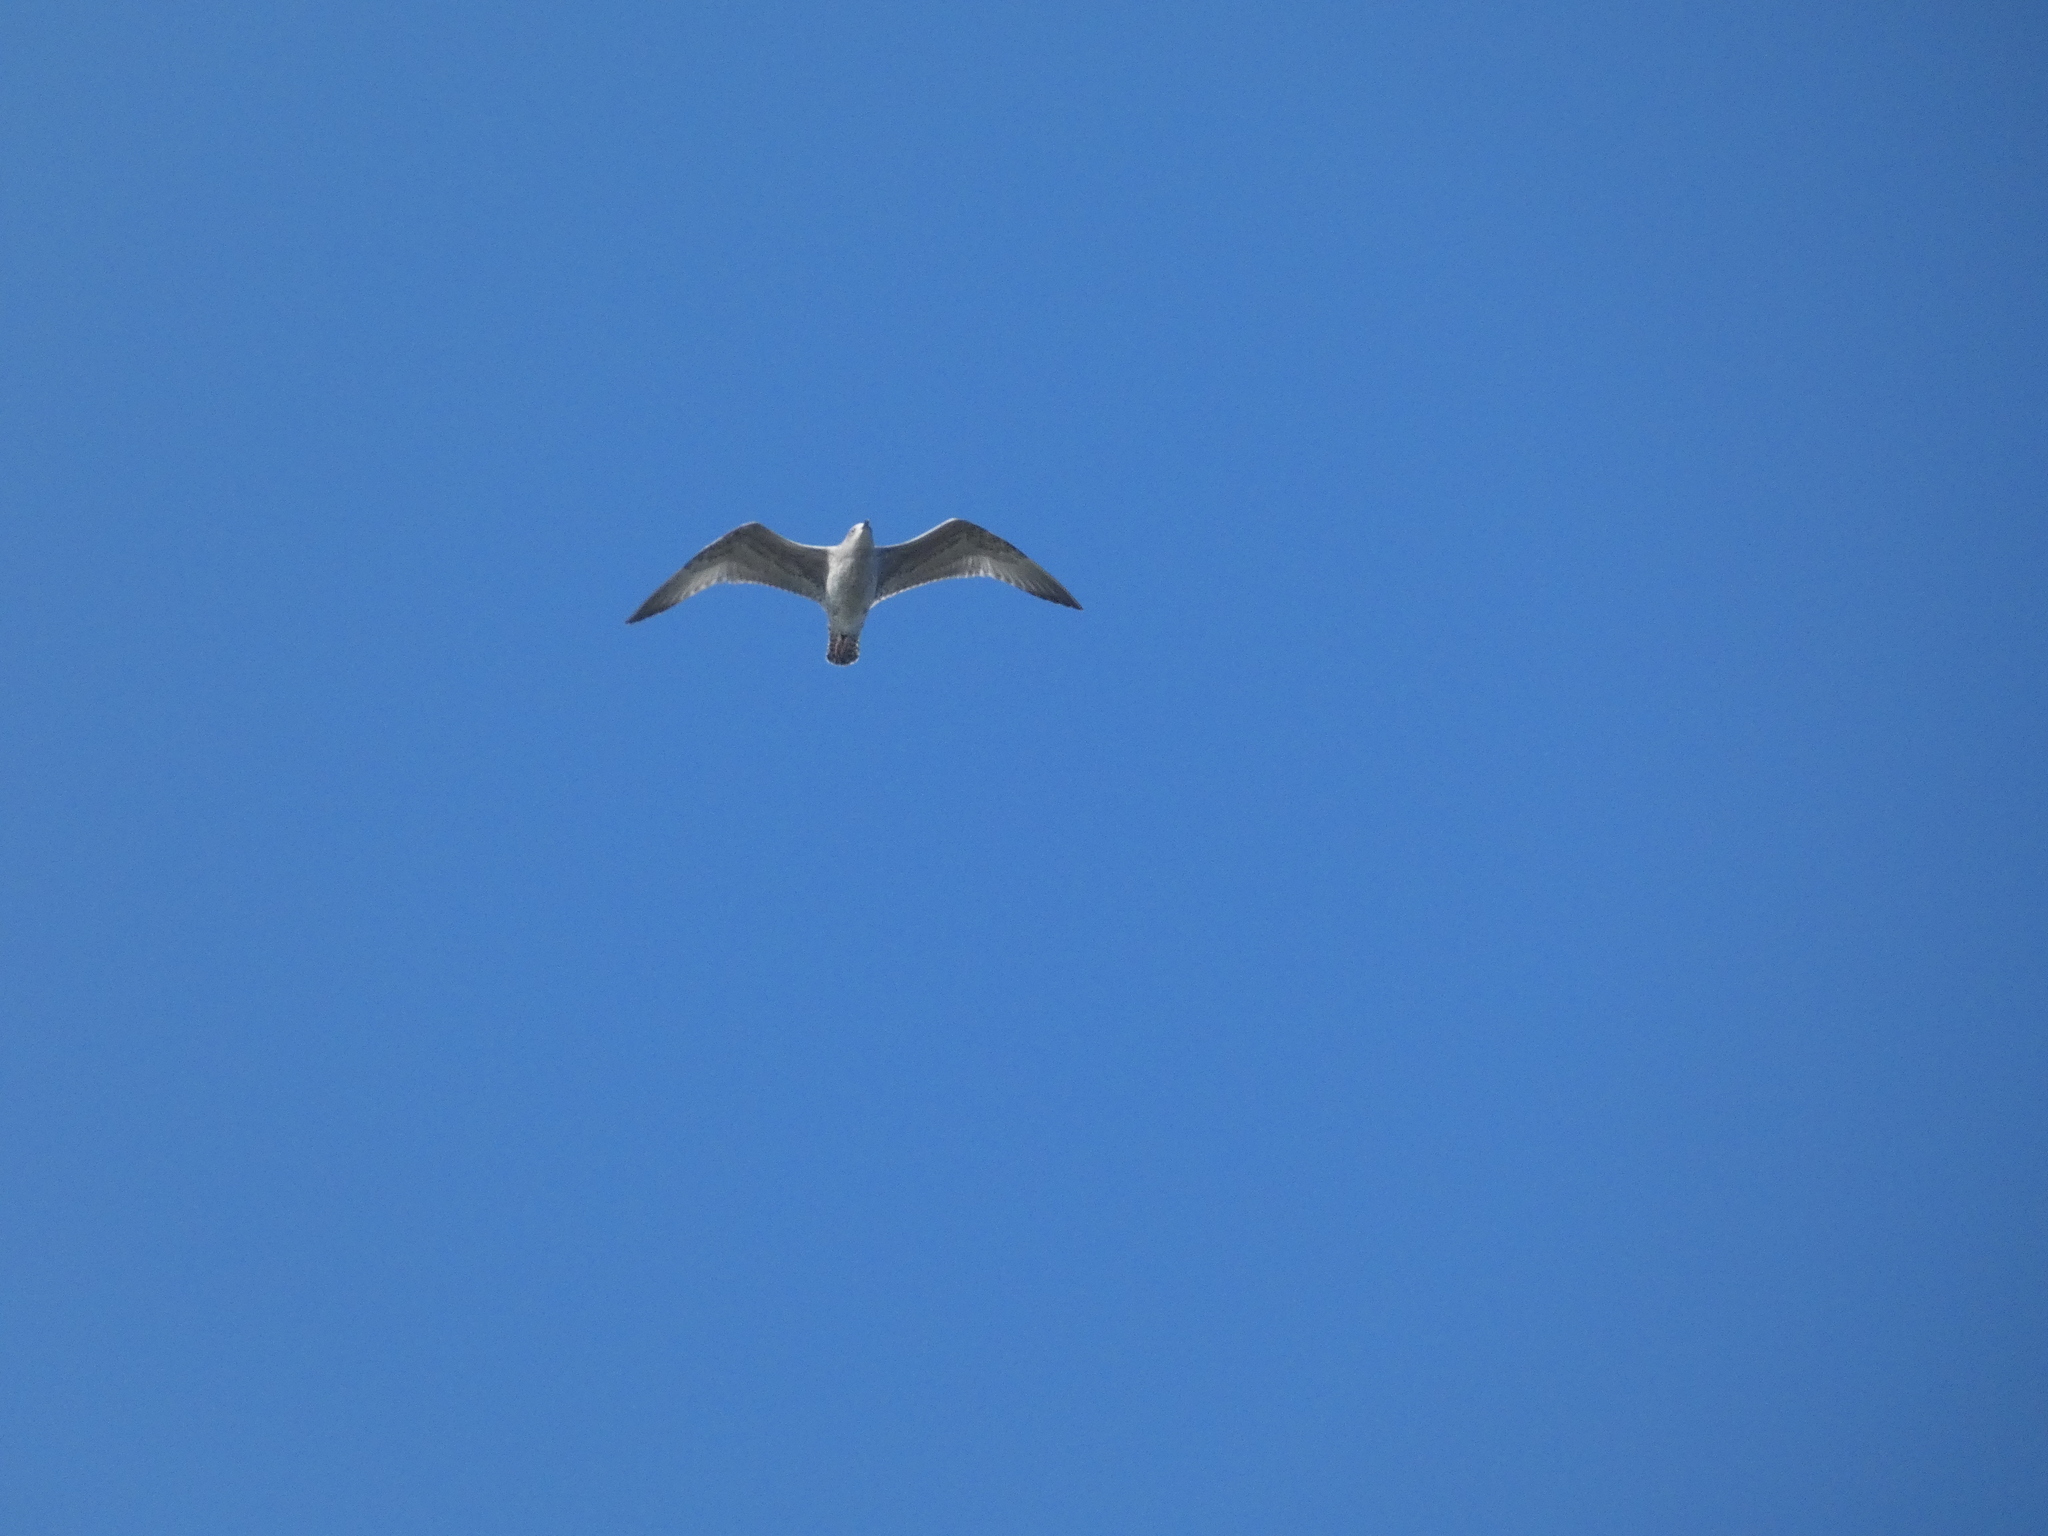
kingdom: Animalia
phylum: Chordata
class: Aves
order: Charadriiformes
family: Laridae
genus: Larus
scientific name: Larus argentatus
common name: Herring gull
